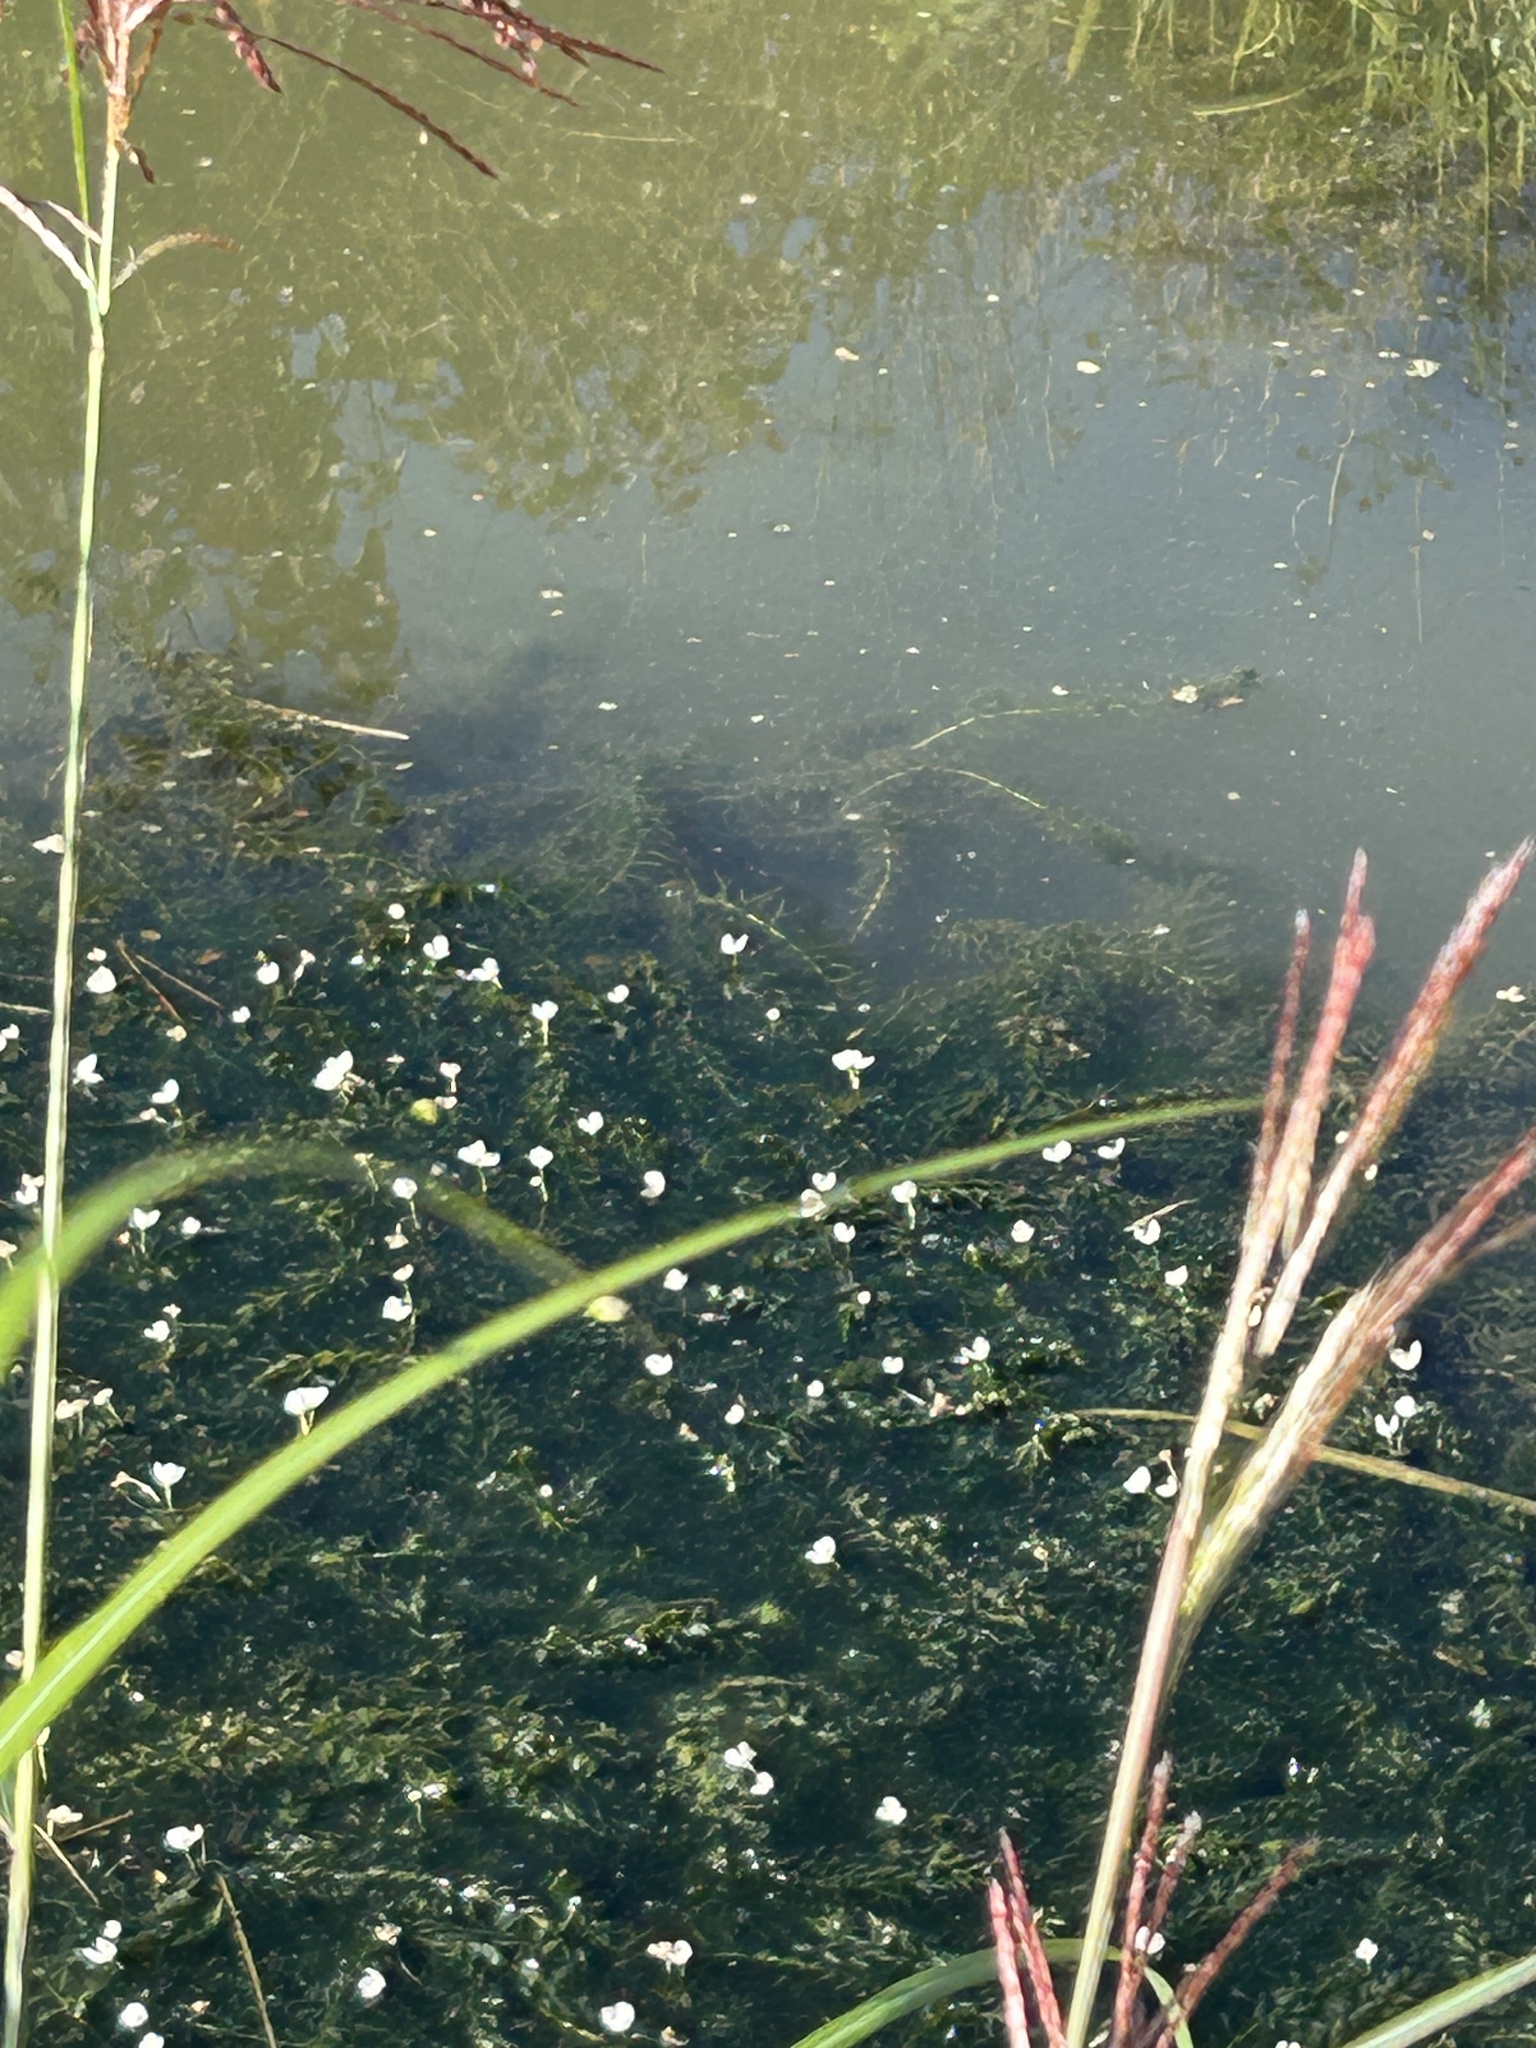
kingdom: Plantae
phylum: Tracheophyta
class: Liliopsida
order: Alismatales
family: Hydrocharitaceae
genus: Elodea
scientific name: Elodea densa
